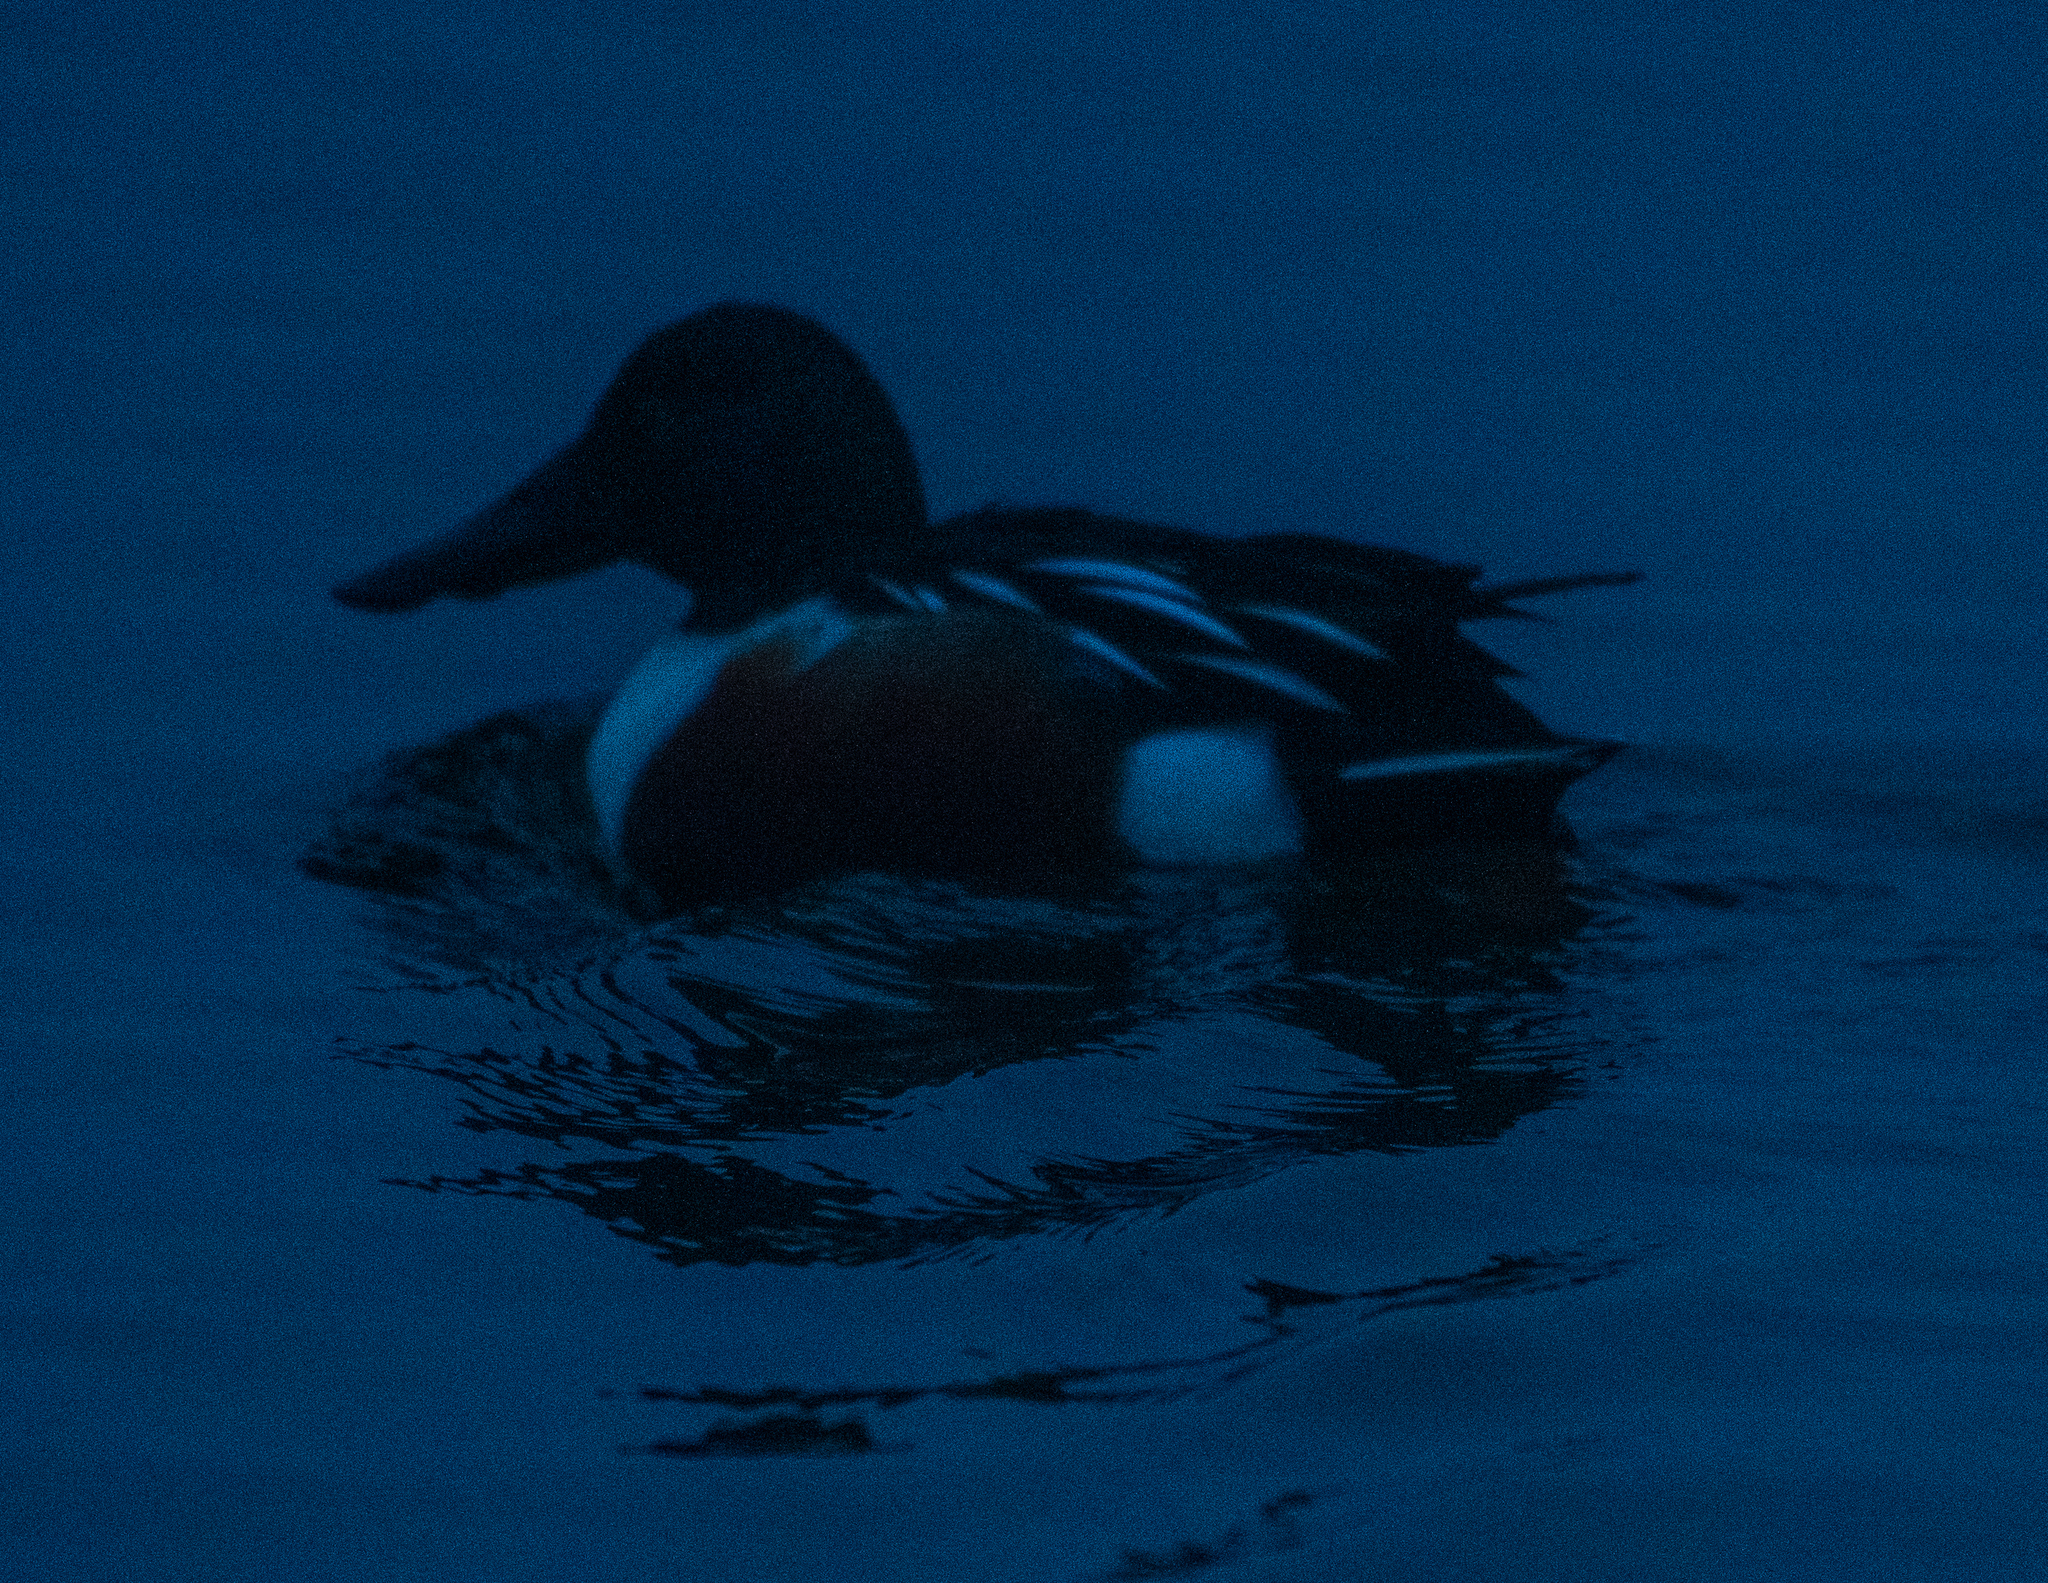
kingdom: Animalia
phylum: Chordata
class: Aves
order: Anseriformes
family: Anatidae
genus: Spatula
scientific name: Spatula clypeata
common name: Northern shoveler
